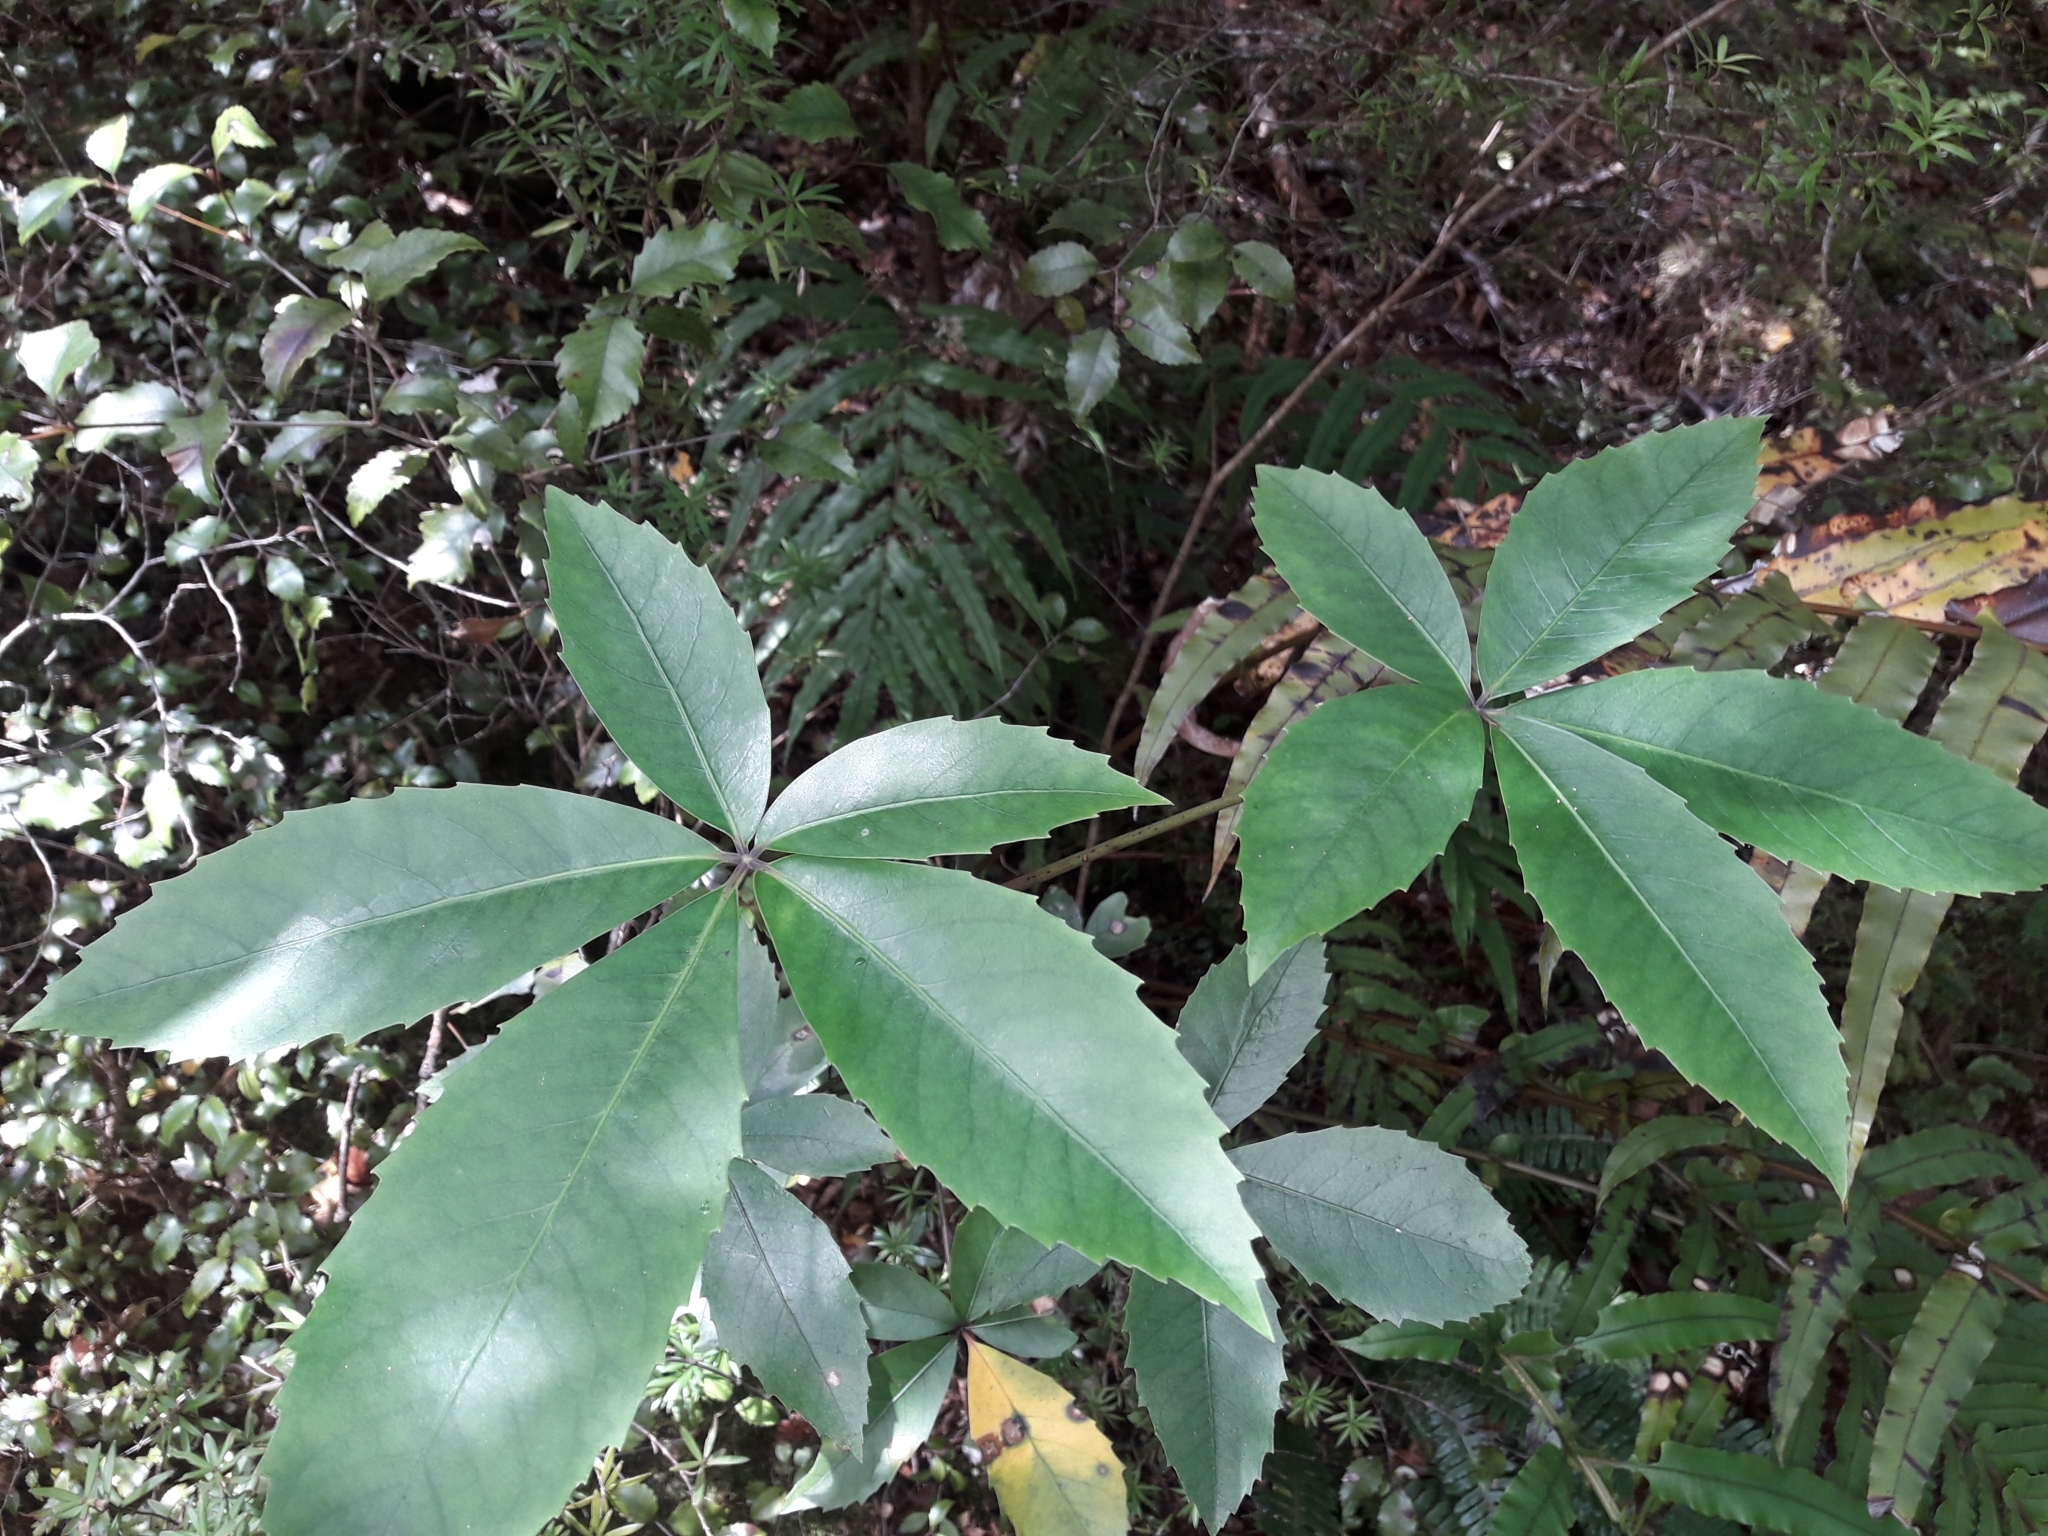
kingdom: Plantae
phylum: Tracheophyta
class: Magnoliopsida
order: Apiales
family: Araliaceae
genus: Neopanax
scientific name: Neopanax colensoi
